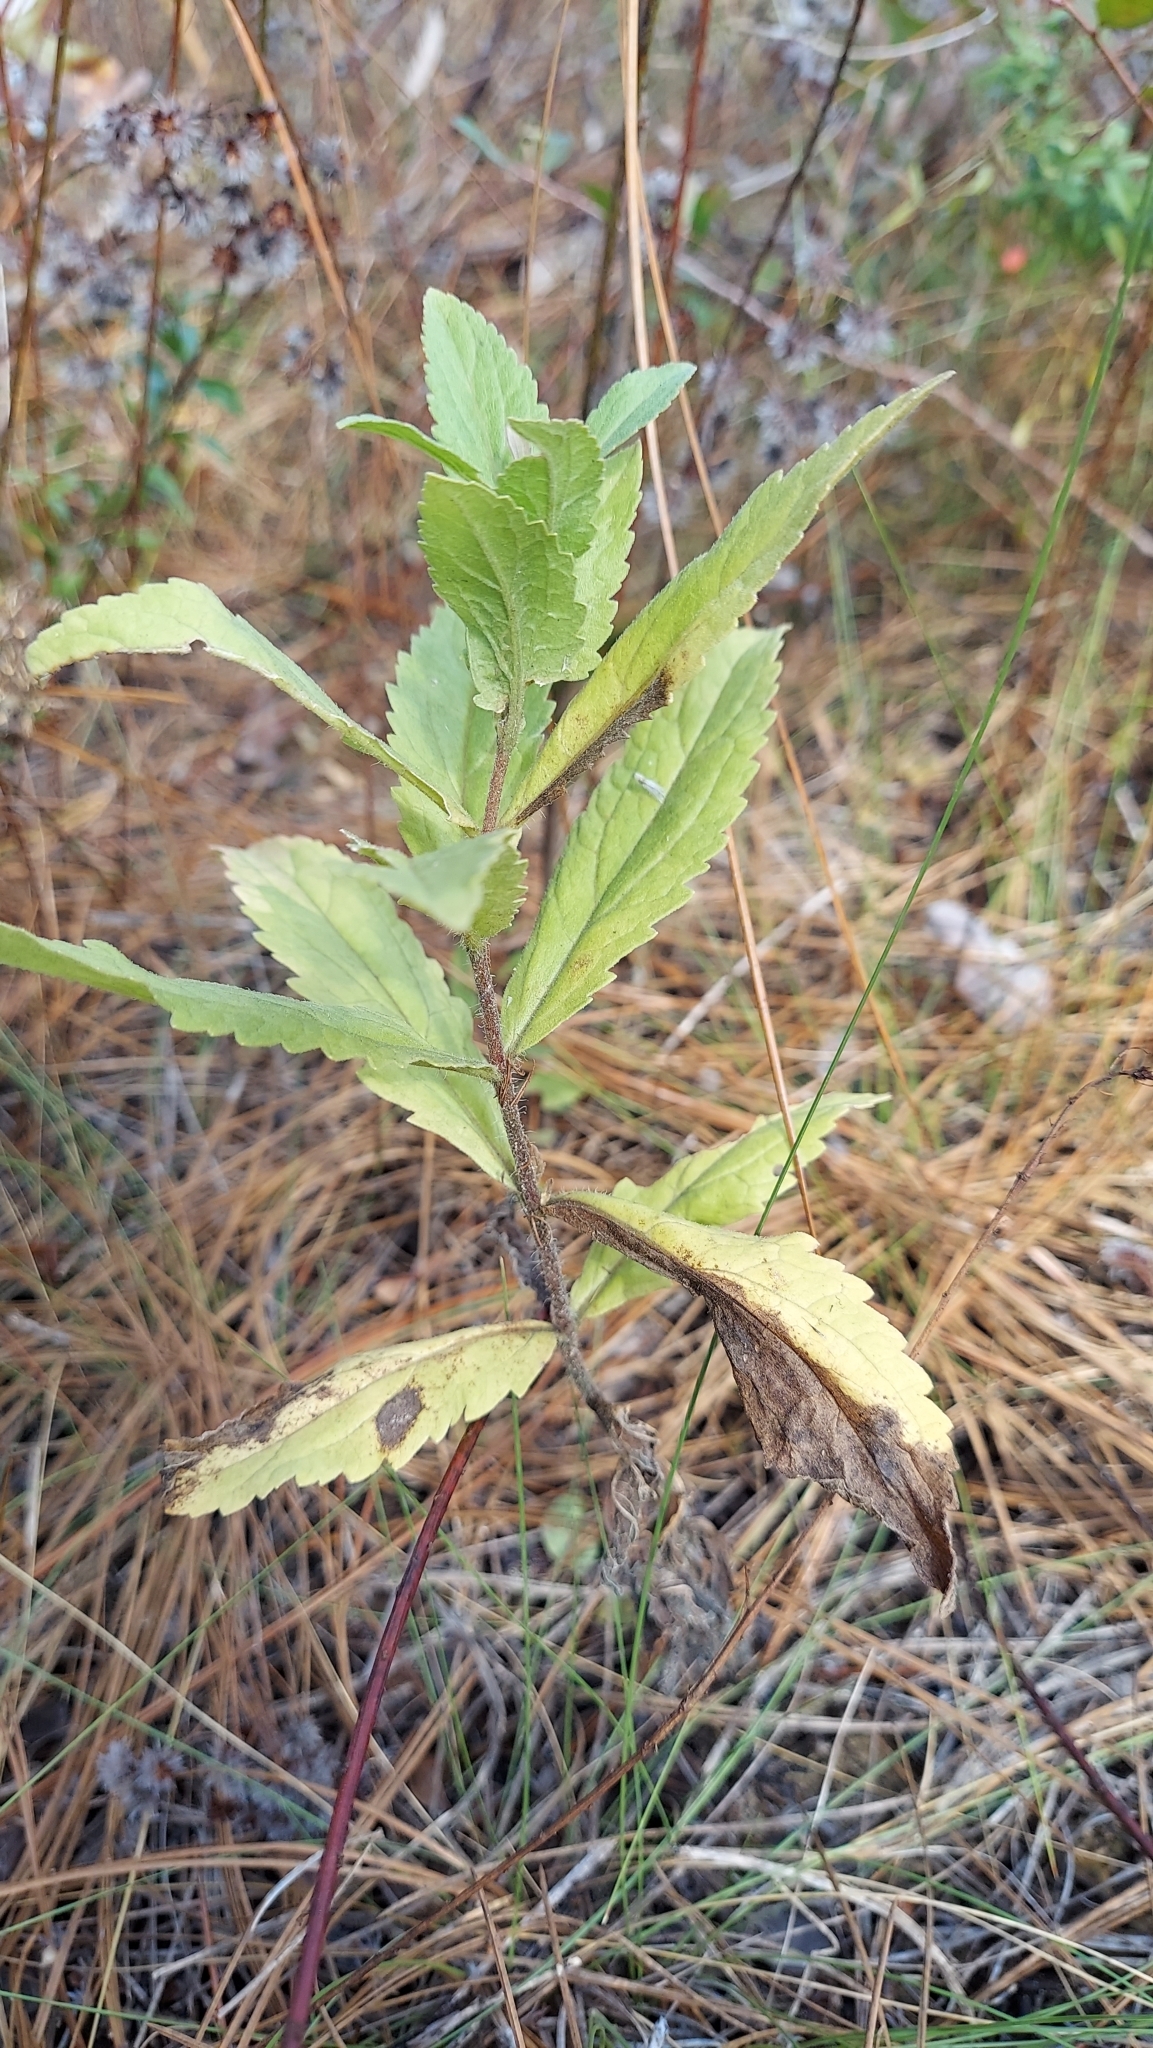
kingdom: Plantae
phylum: Tracheophyta
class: Magnoliopsida
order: Asterales
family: Asteraceae
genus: Eupatorium
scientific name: Eupatorium album
